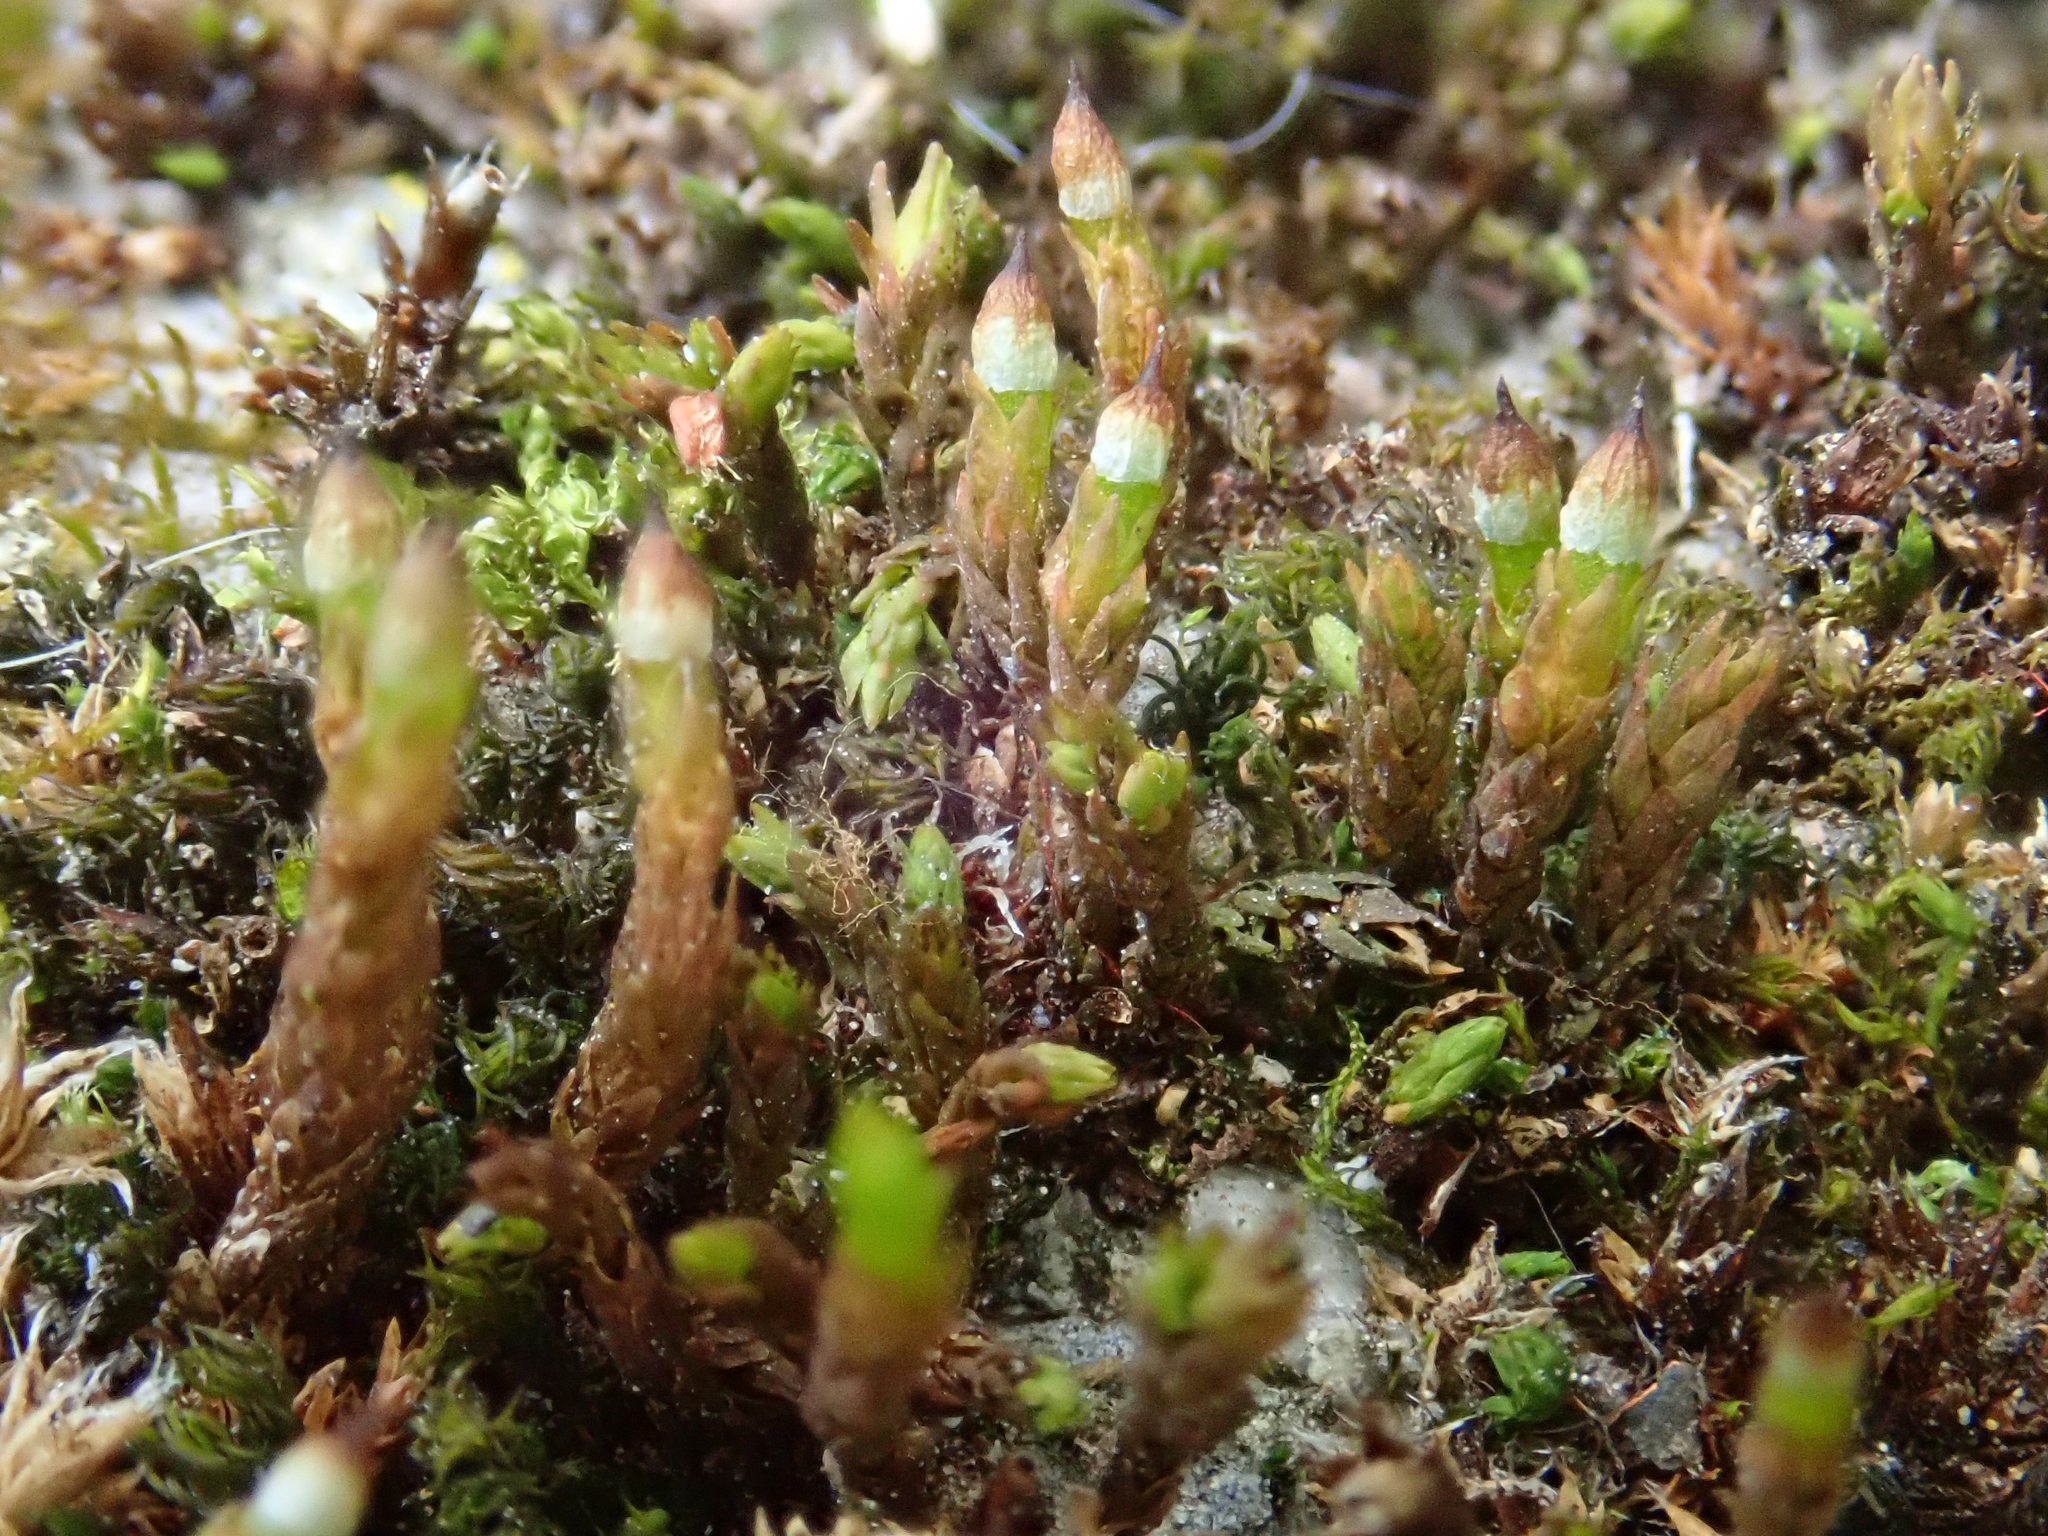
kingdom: Plantae
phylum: Bryophyta
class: Bryopsida
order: Orthotrichales
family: Orthotrichaceae
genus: Nyholmiella
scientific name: Nyholmiella obtusifolia
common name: Blunt-leaved bristle-moss
